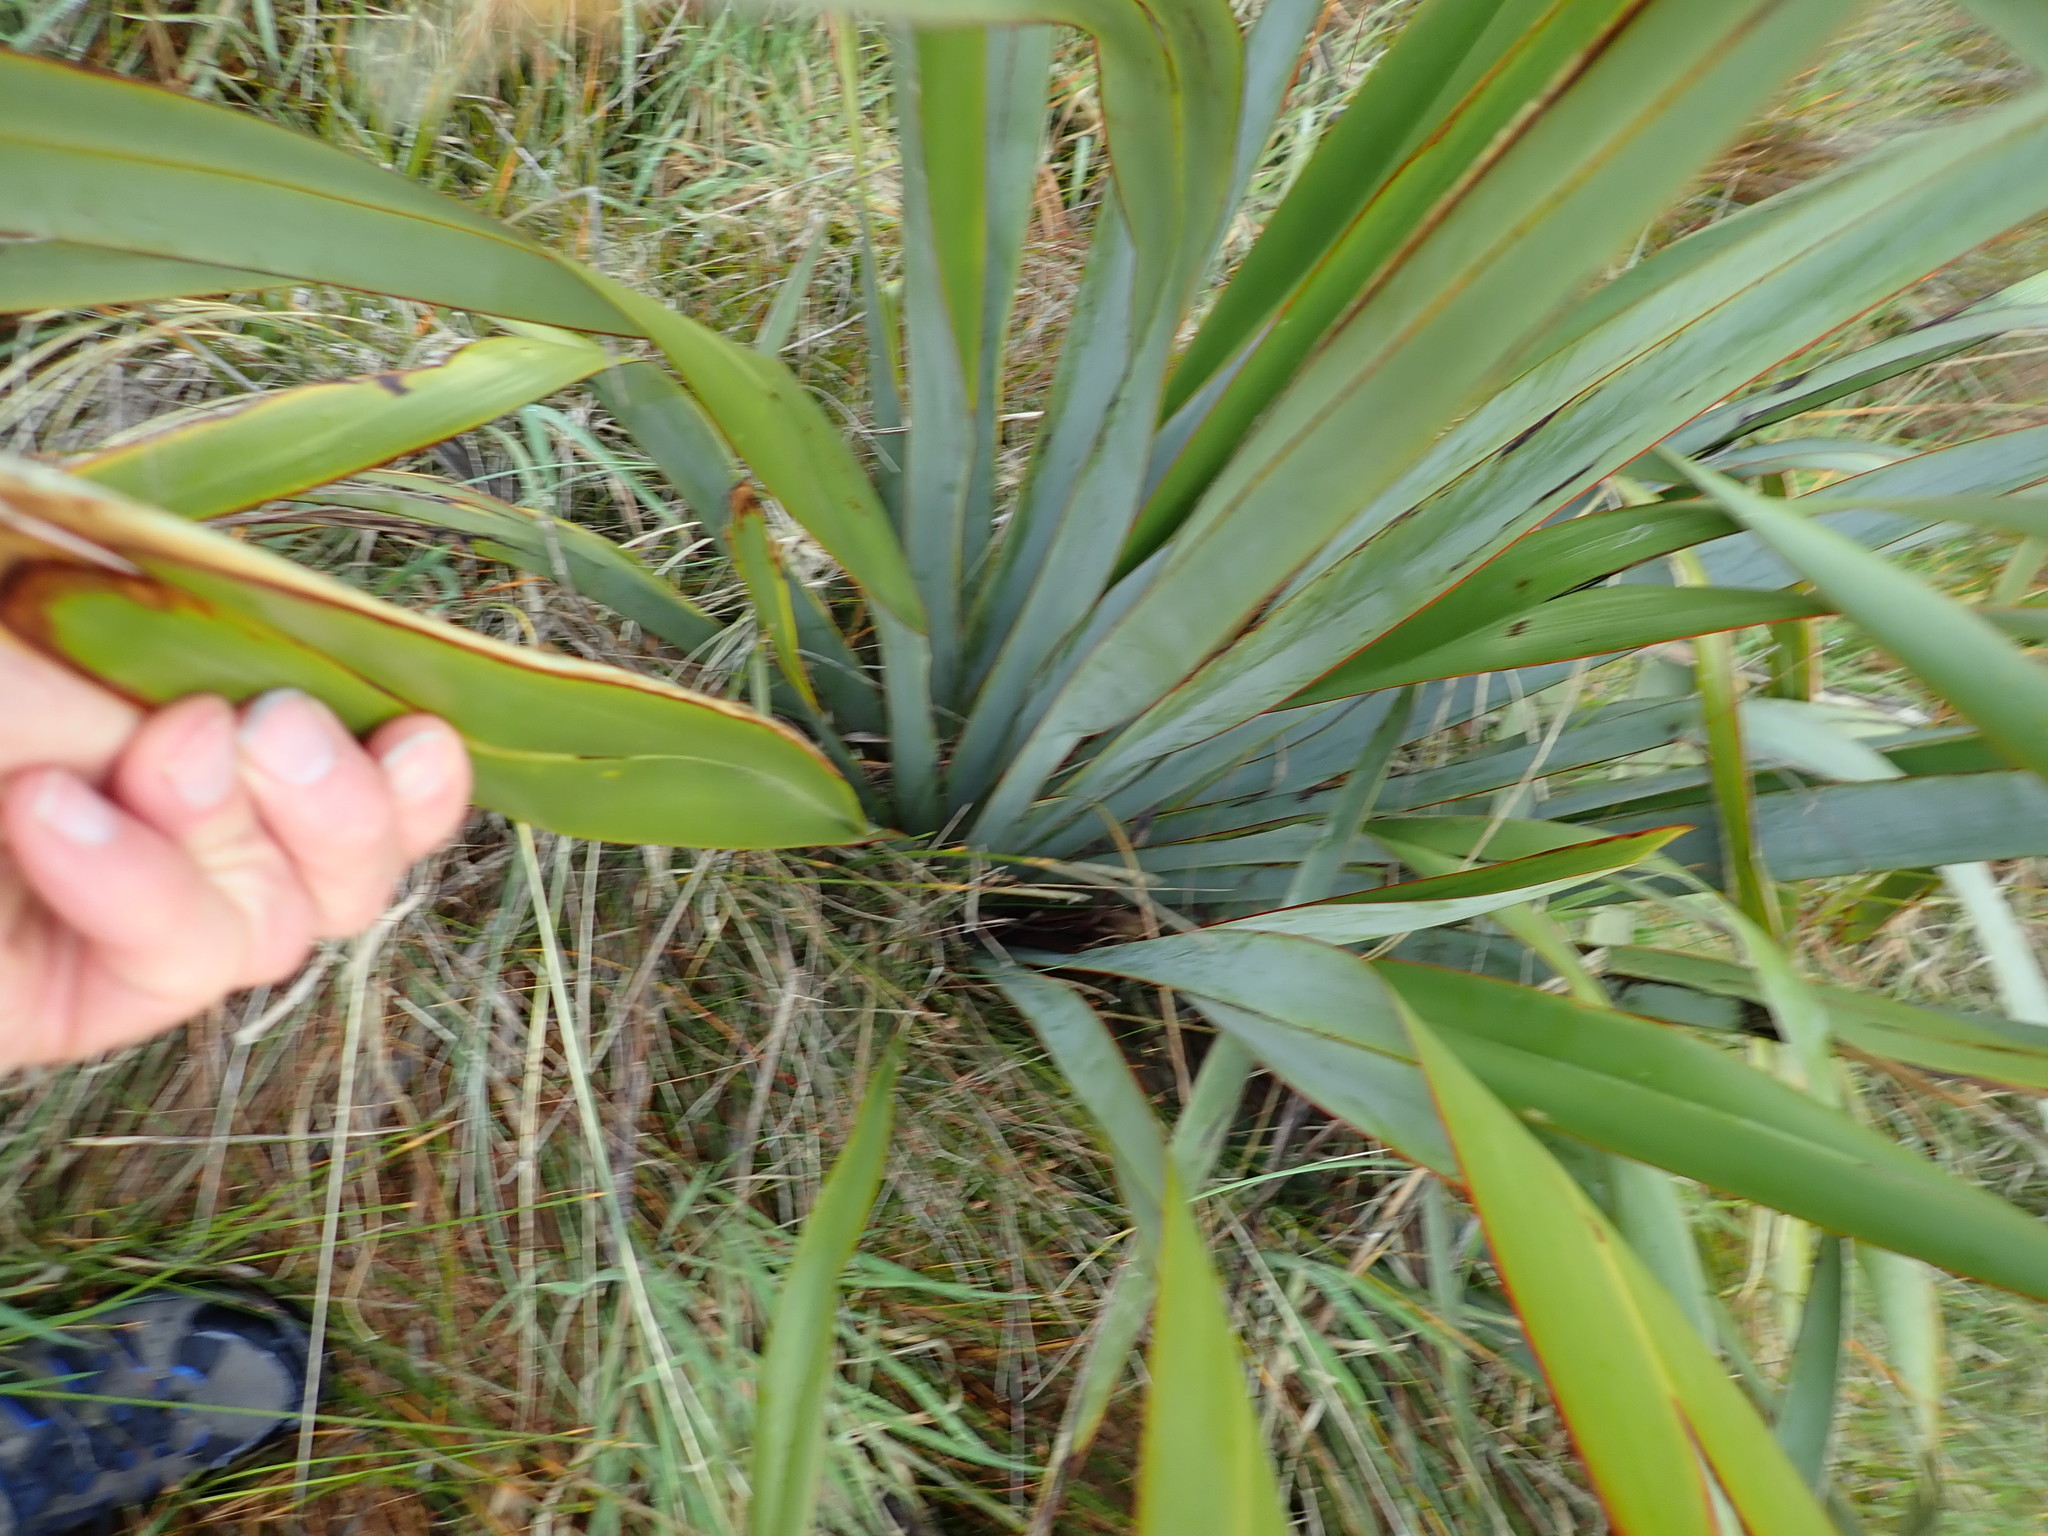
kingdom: Plantae
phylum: Tracheophyta
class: Liliopsida
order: Asparagales
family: Asphodelaceae
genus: Phormium
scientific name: Phormium tenax
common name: New zealand flax
